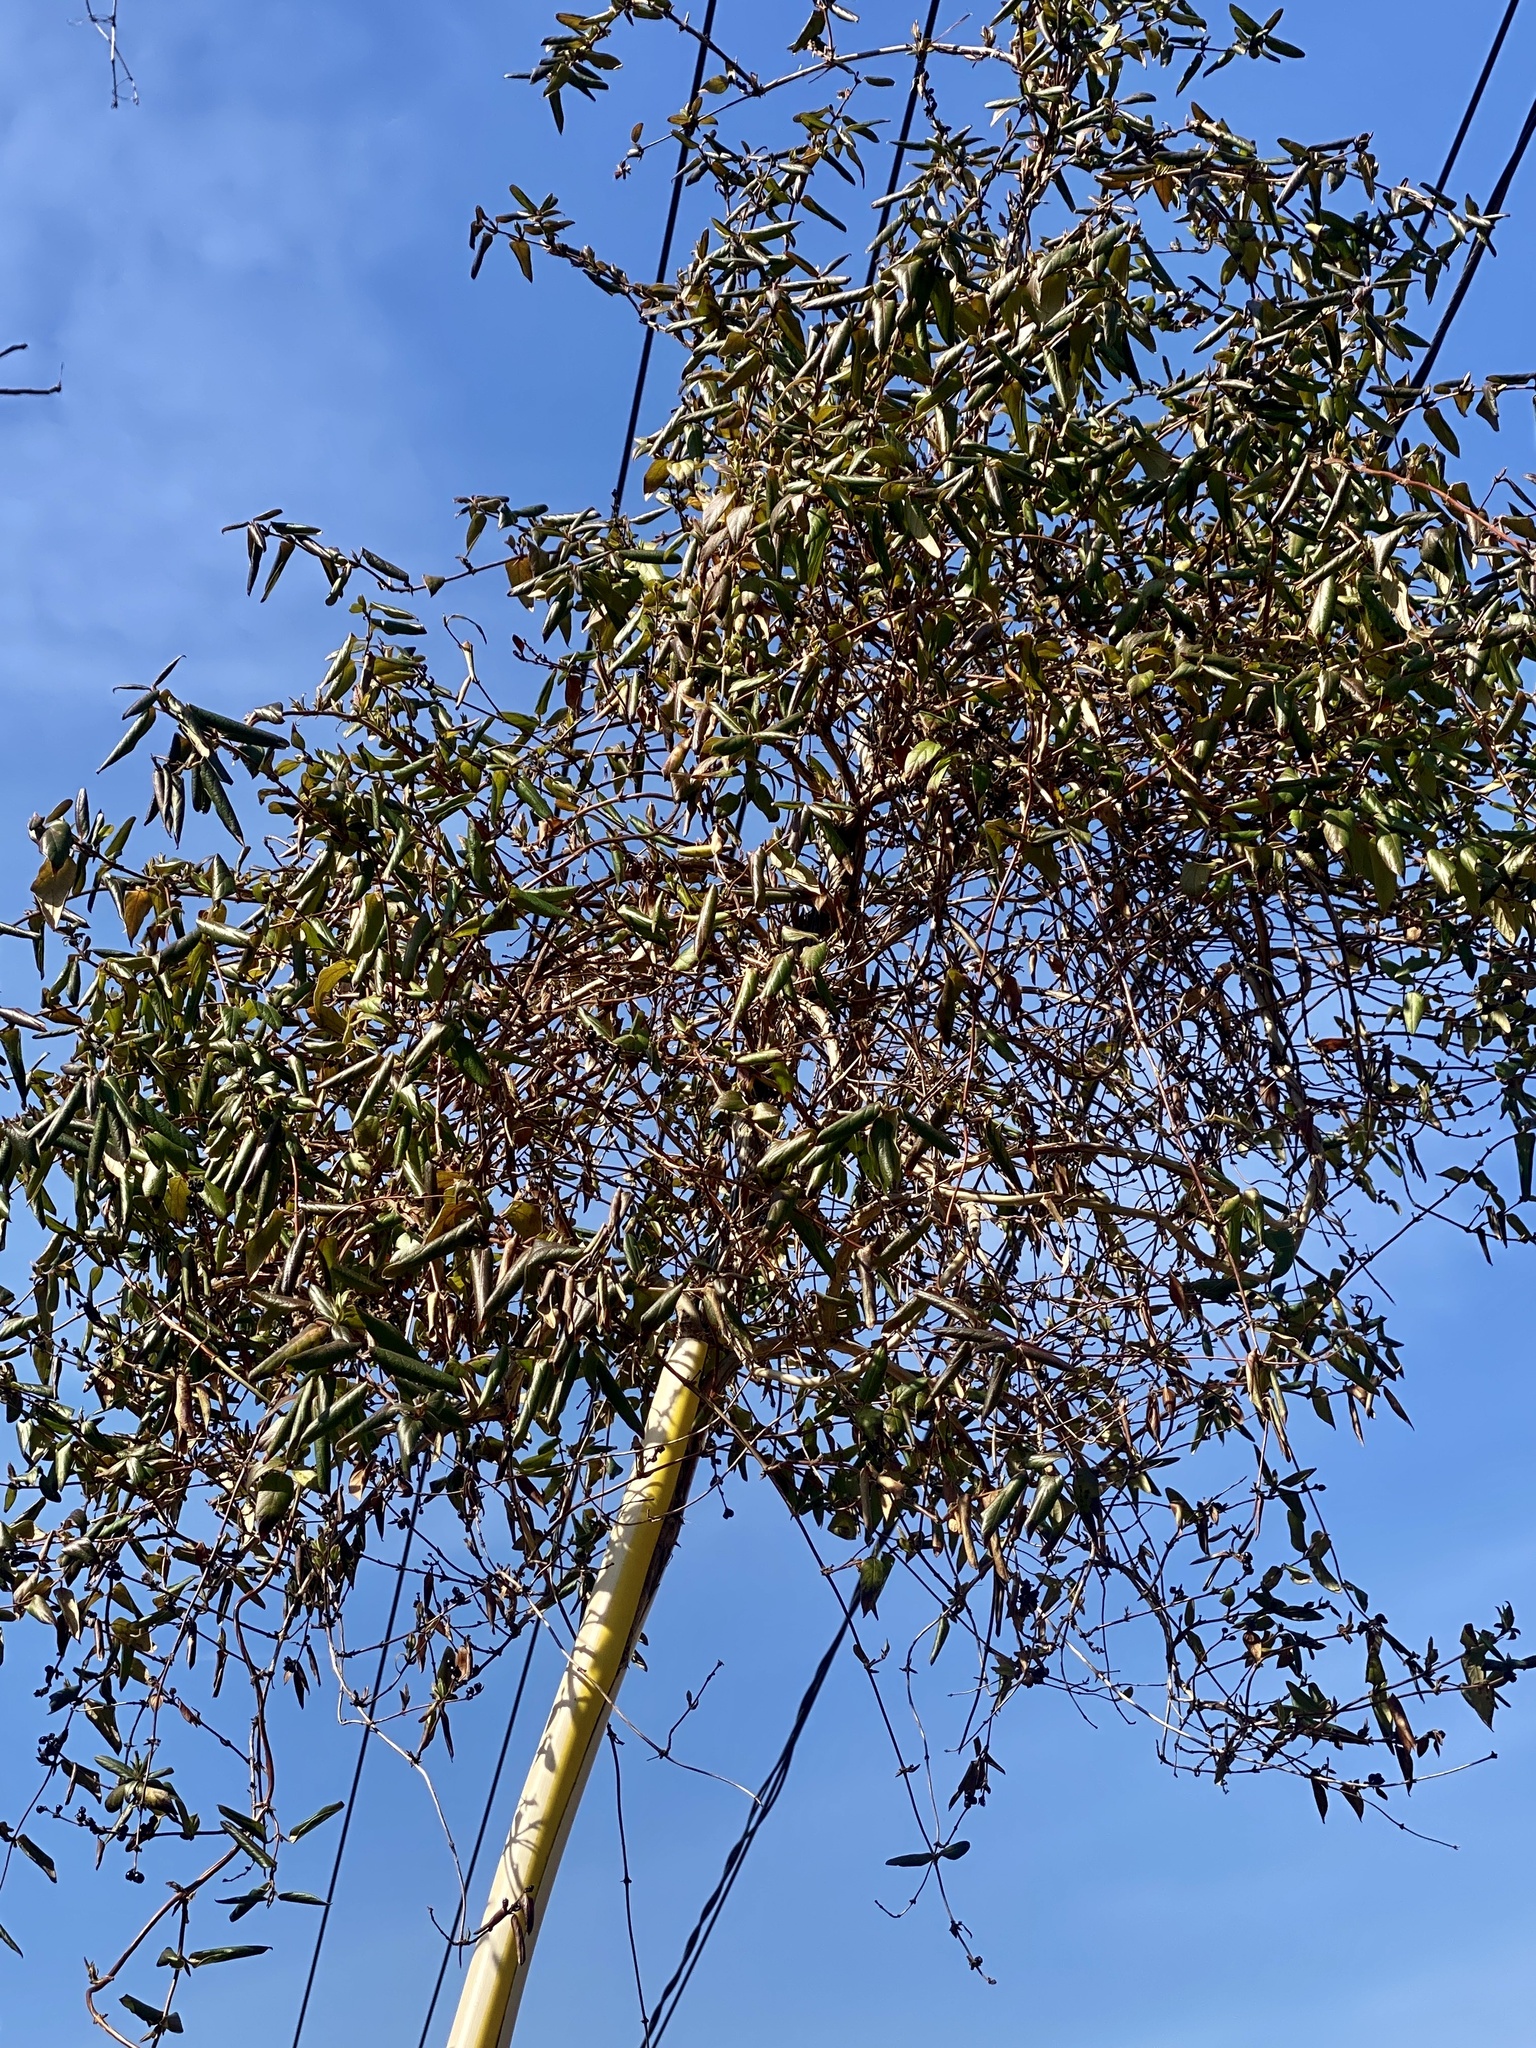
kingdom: Plantae
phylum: Tracheophyta
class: Magnoliopsida
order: Dipsacales
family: Caprifoliaceae
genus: Lonicera
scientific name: Lonicera japonica
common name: Japanese honeysuckle
